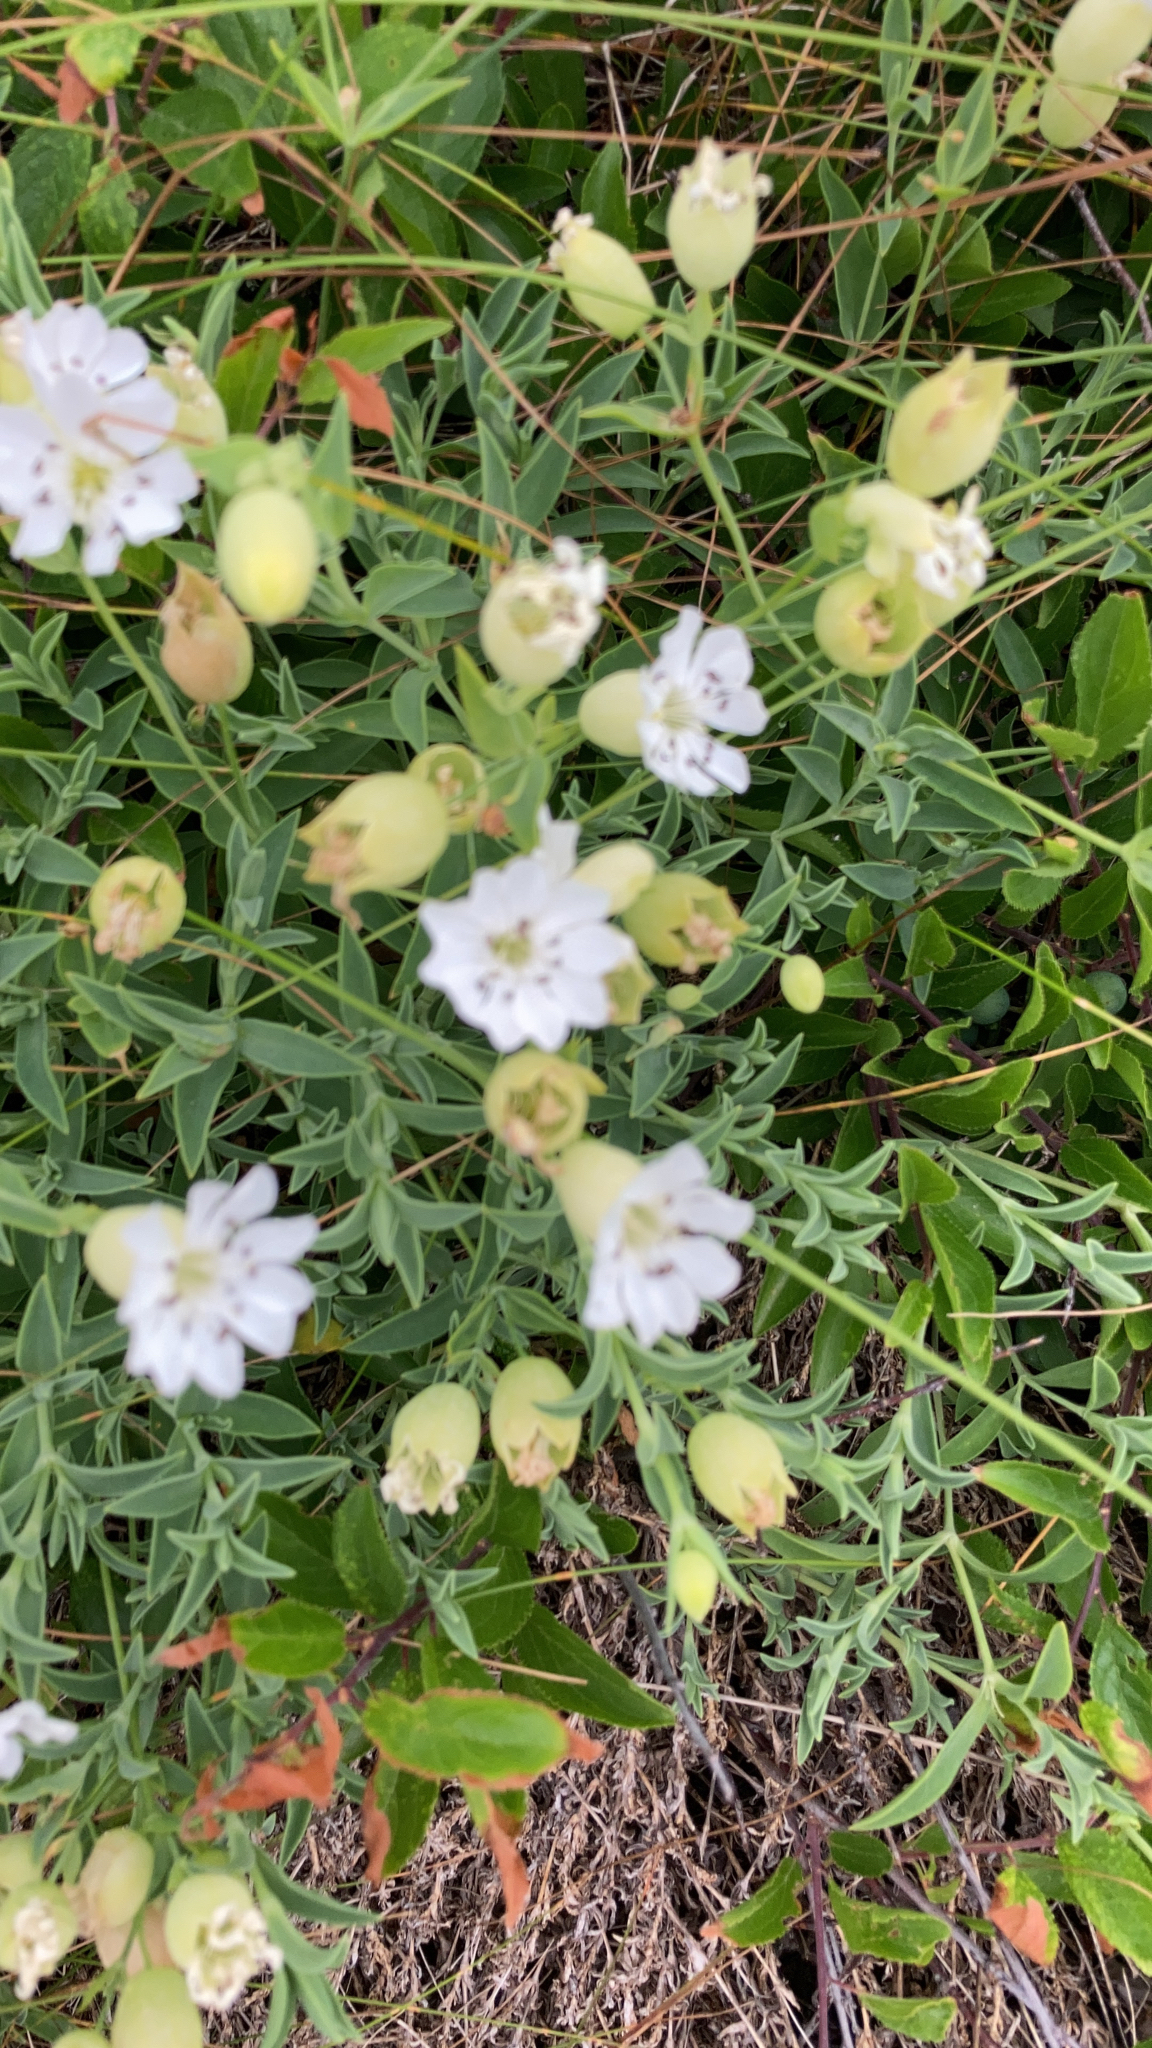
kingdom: Plantae
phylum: Tracheophyta
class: Magnoliopsida
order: Caryophyllales
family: Caryophyllaceae
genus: Silene
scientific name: Silene uniflora
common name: Sea campion
